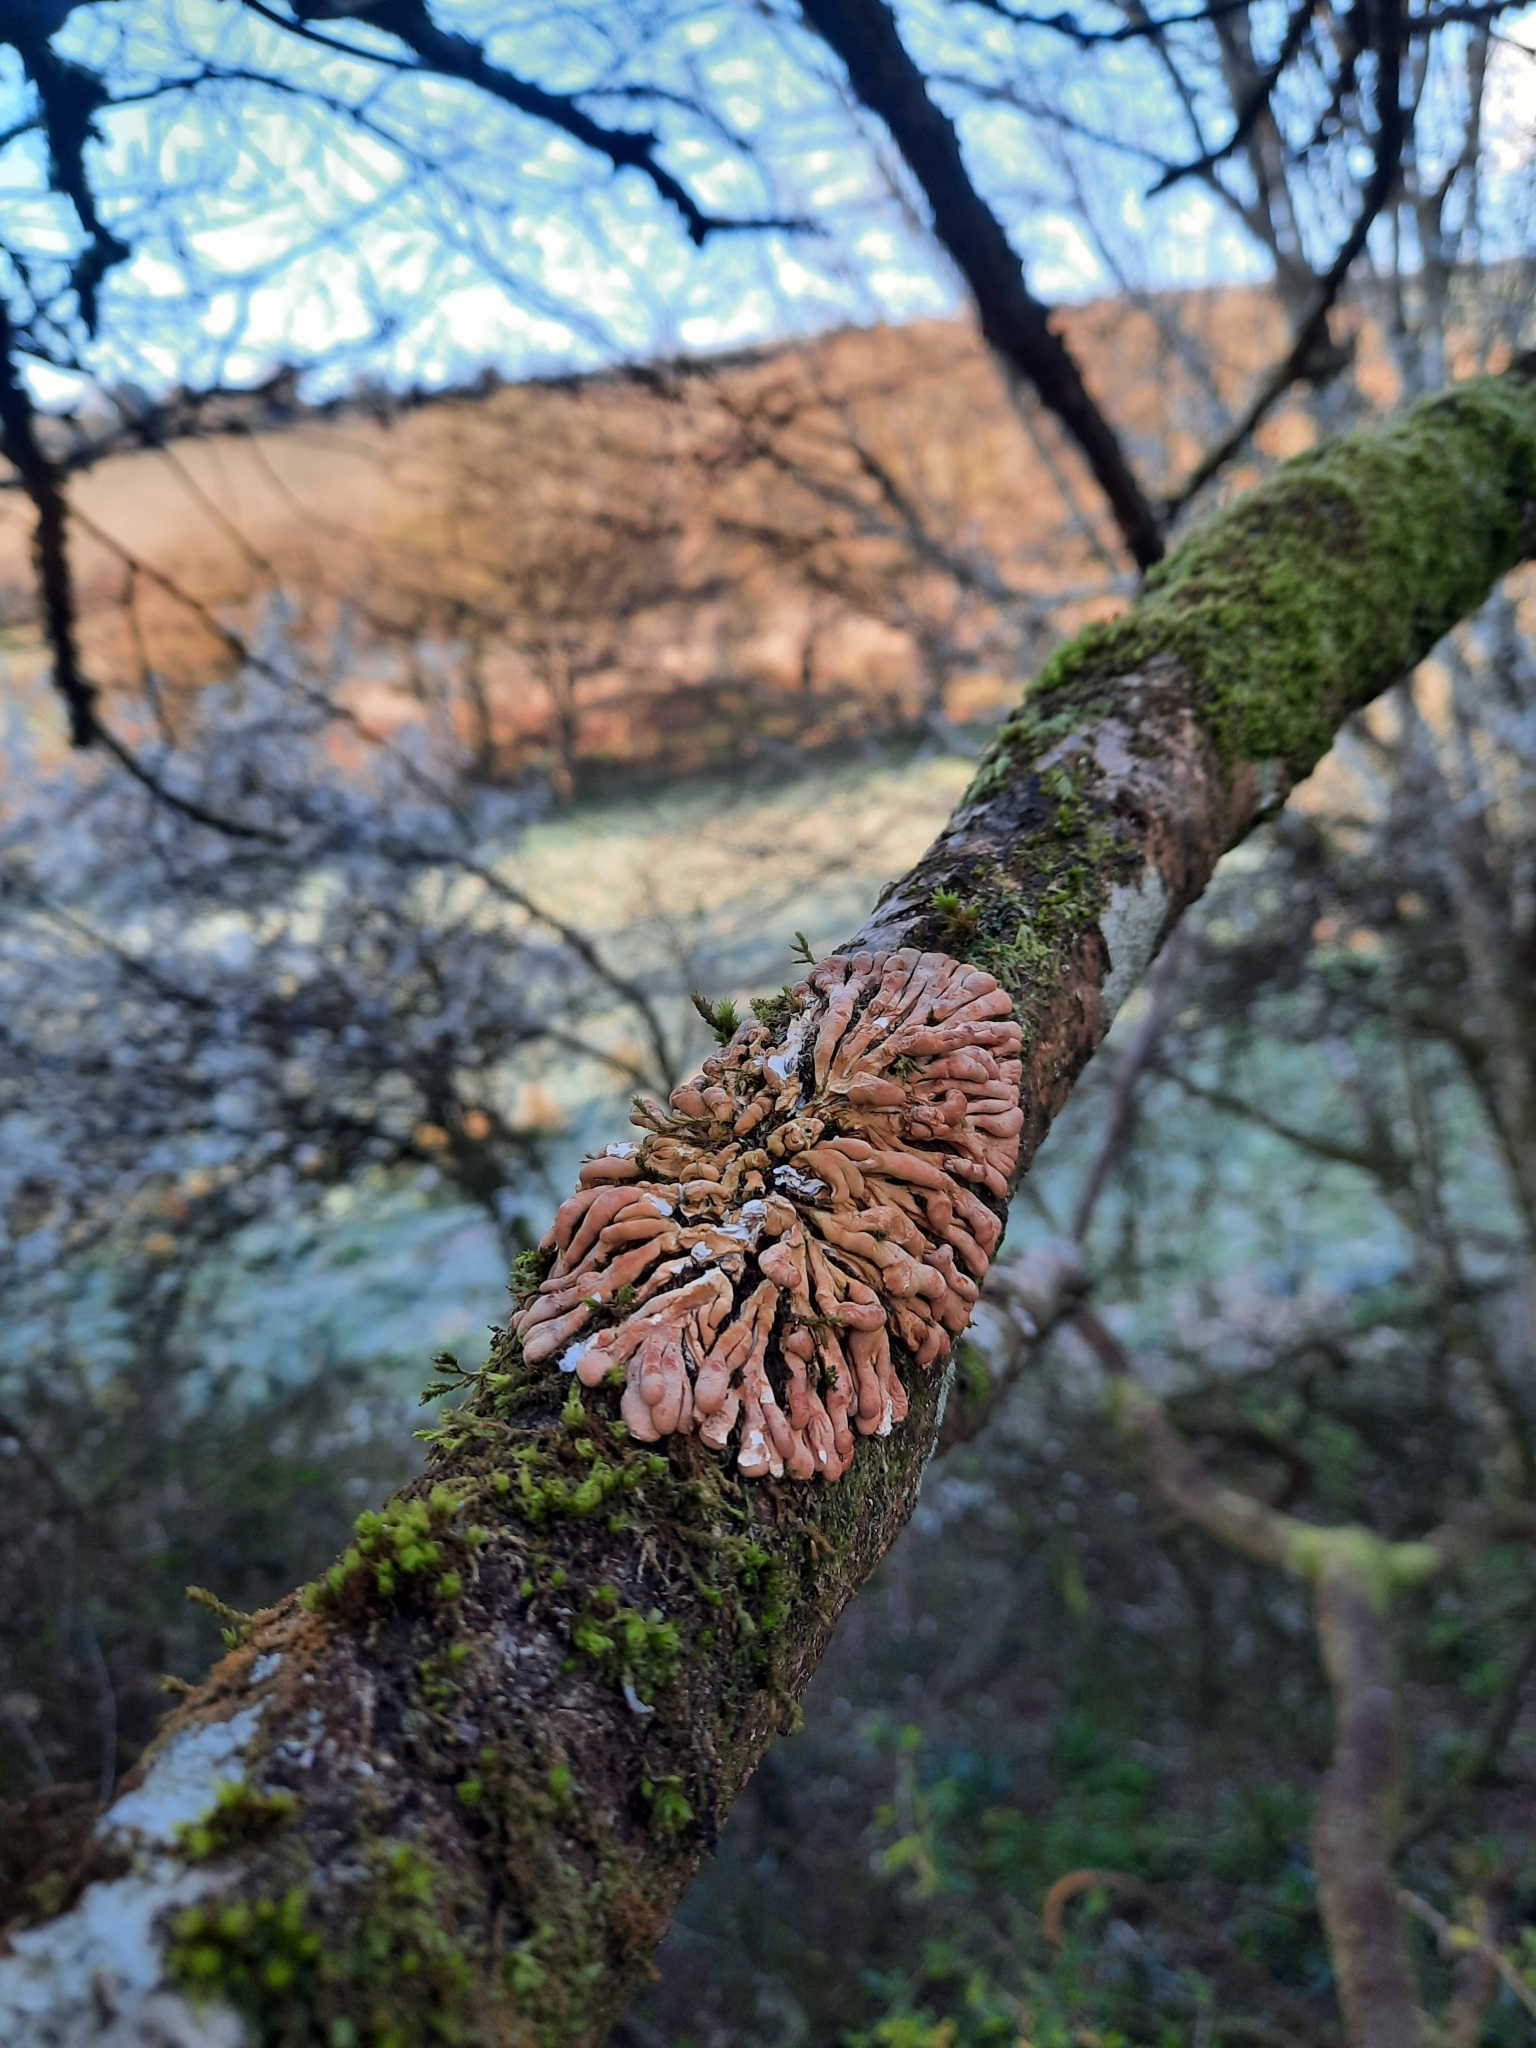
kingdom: Fungi
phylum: Ascomycota
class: Sordariomycetes
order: Hypocreales
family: Hypocreaceae
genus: Hypocreopsis
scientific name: Hypocreopsis rhododendri
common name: Hazel gloves
